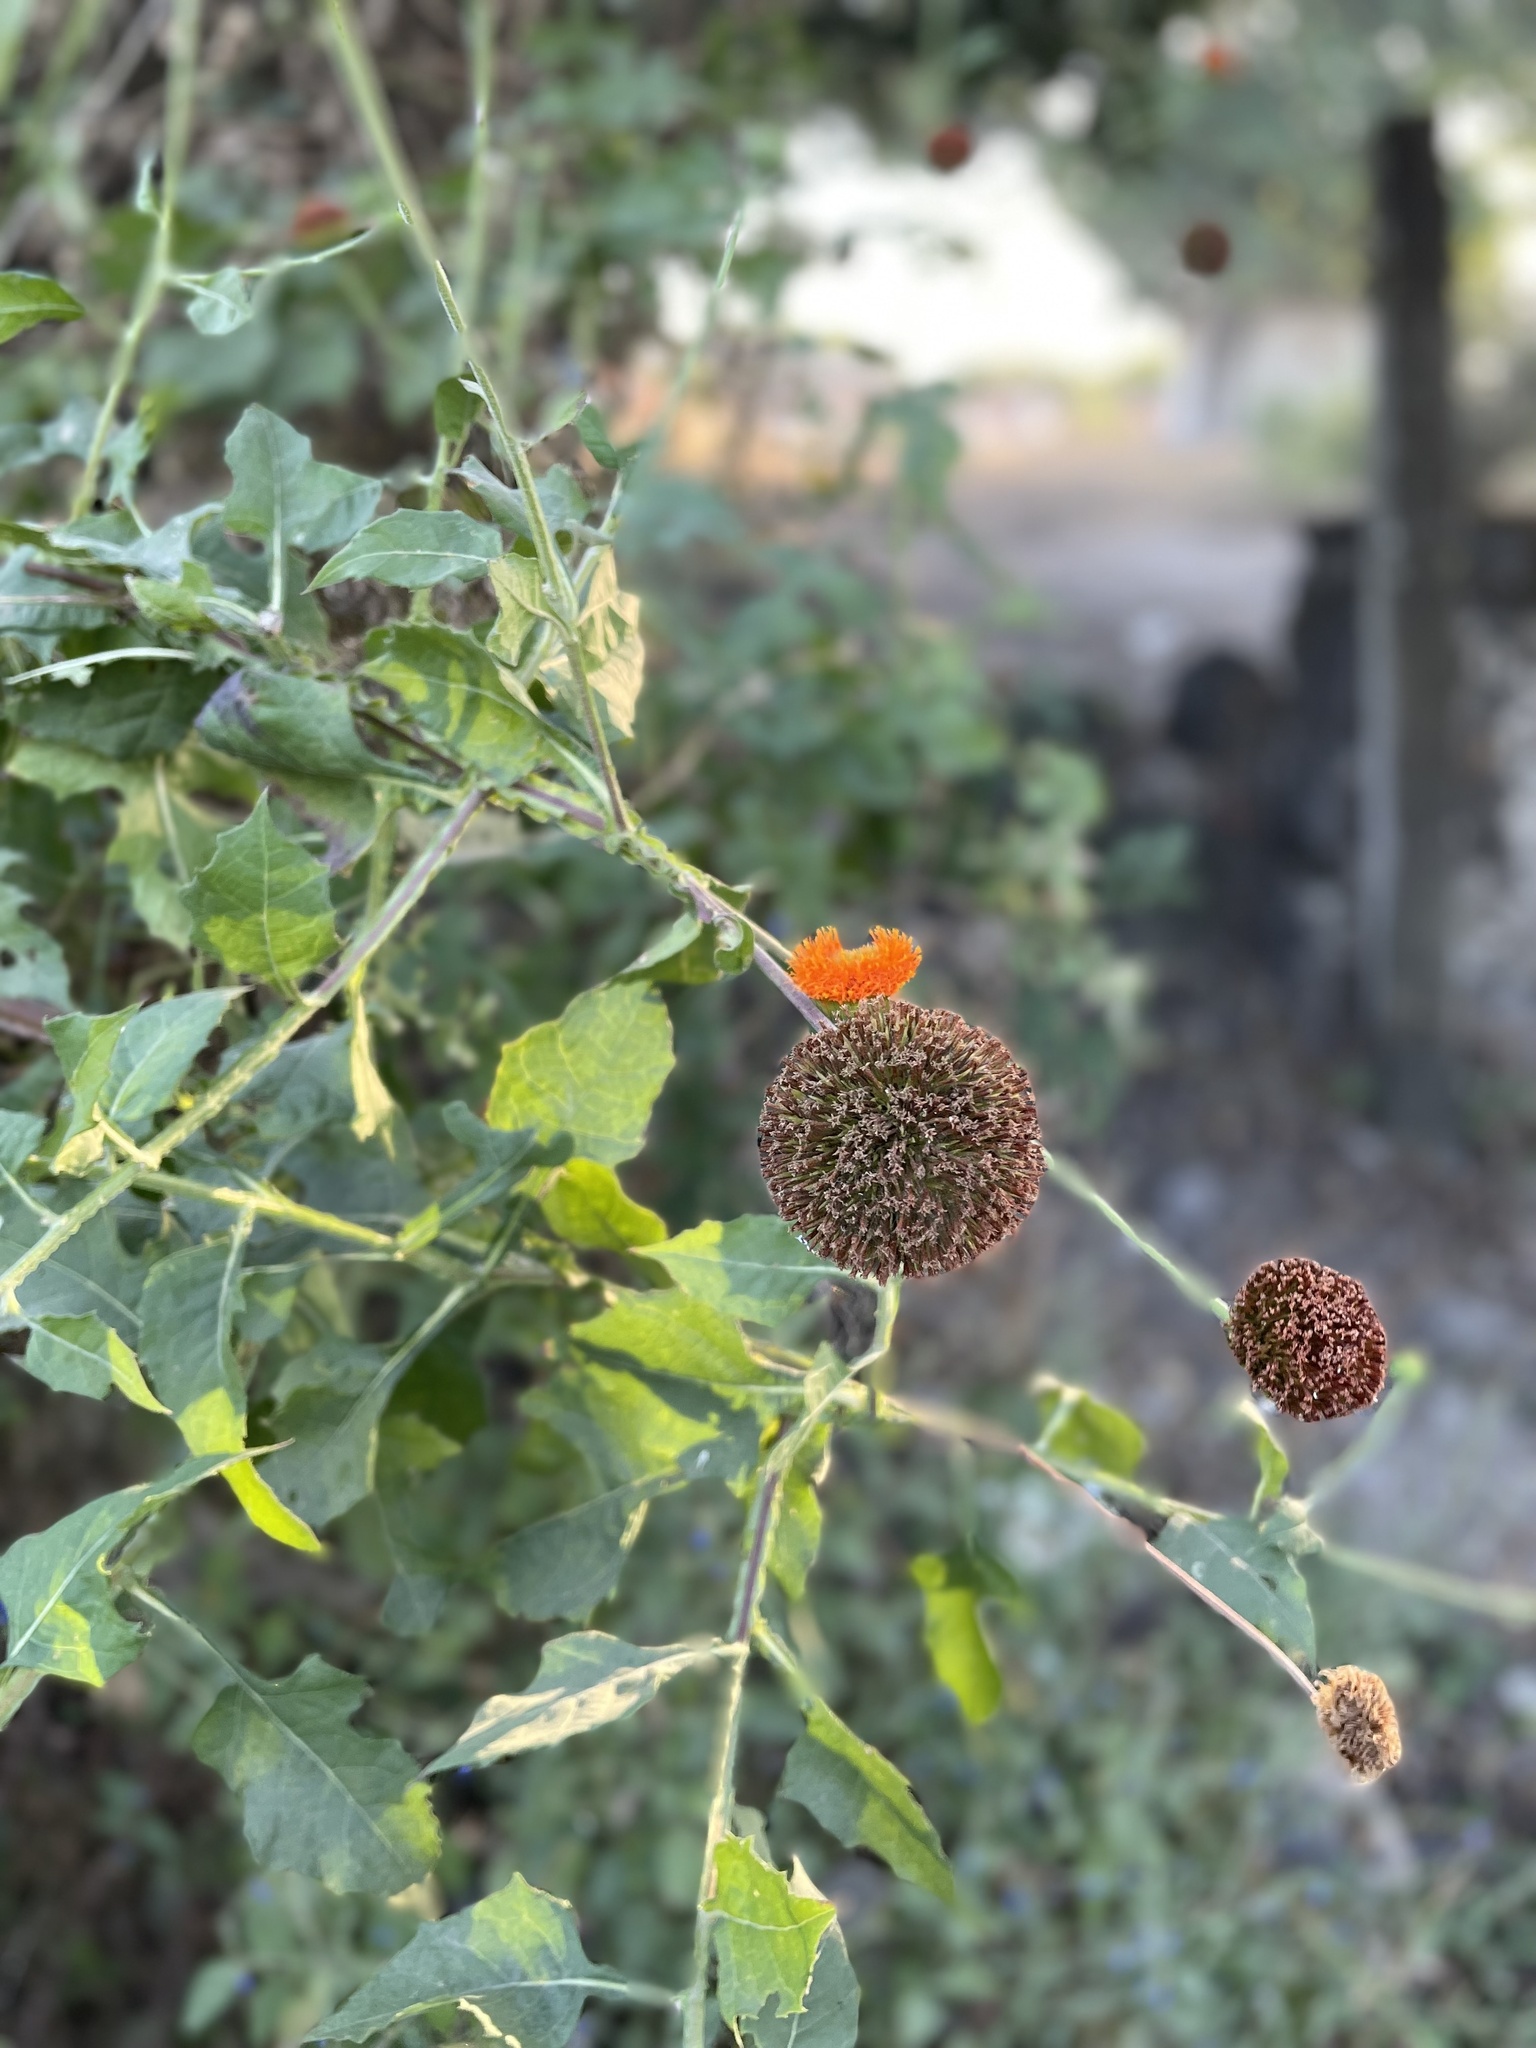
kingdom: Plantae
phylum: Tracheophyta
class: Magnoliopsida
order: Asterales
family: Asteraceae
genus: Verbesina
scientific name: Verbesina crocata
